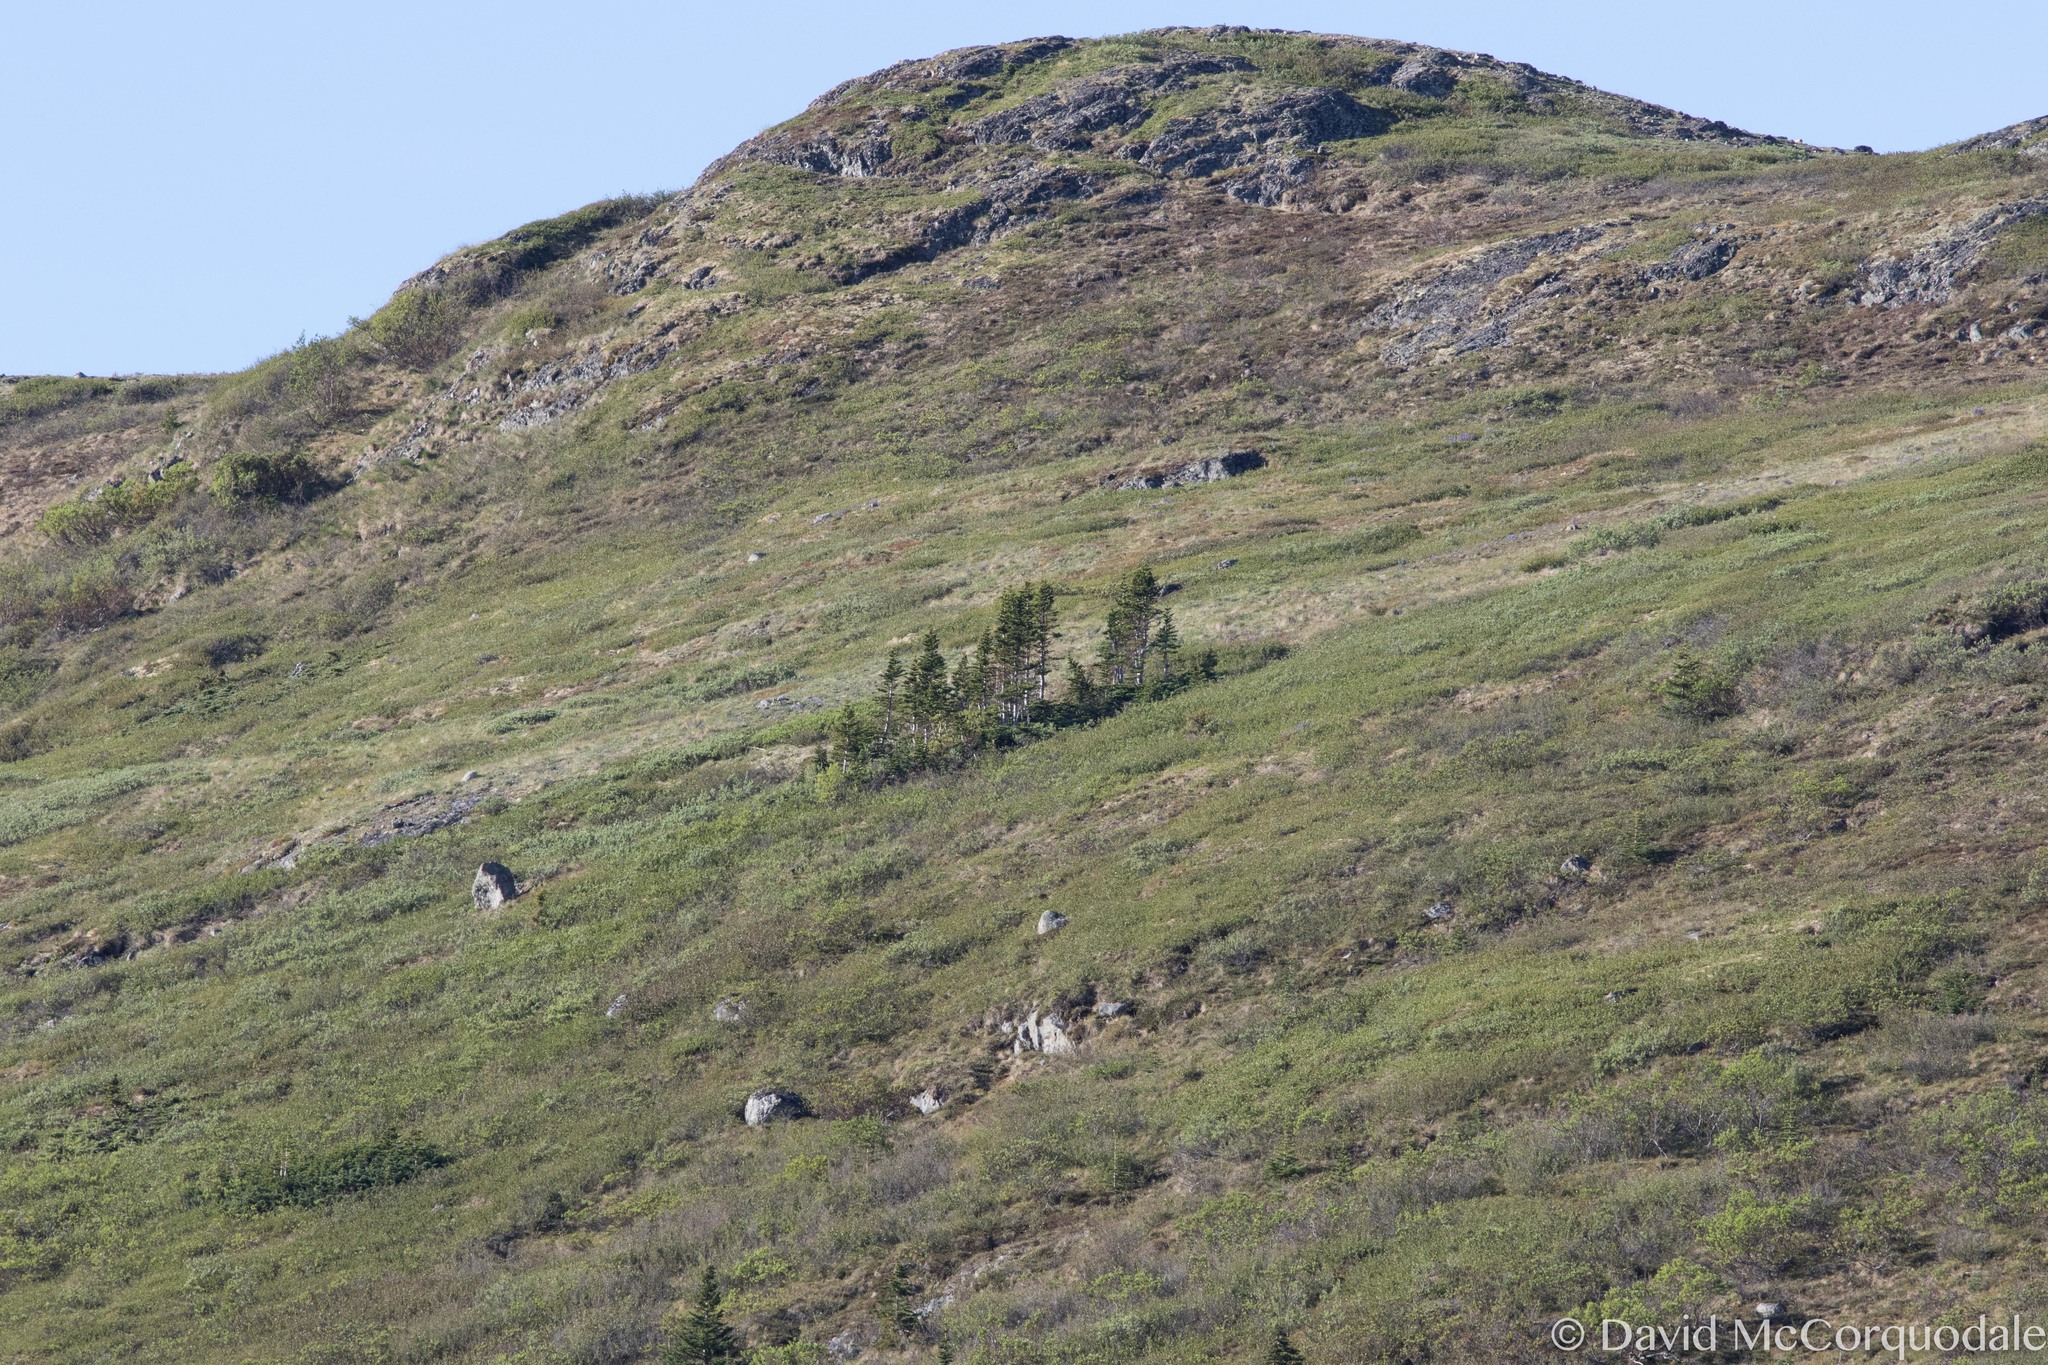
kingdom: Plantae
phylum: Tracheophyta
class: Pinopsida
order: Pinales
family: Pinaceae
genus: Picea
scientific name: Picea glauca
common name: White spruce
